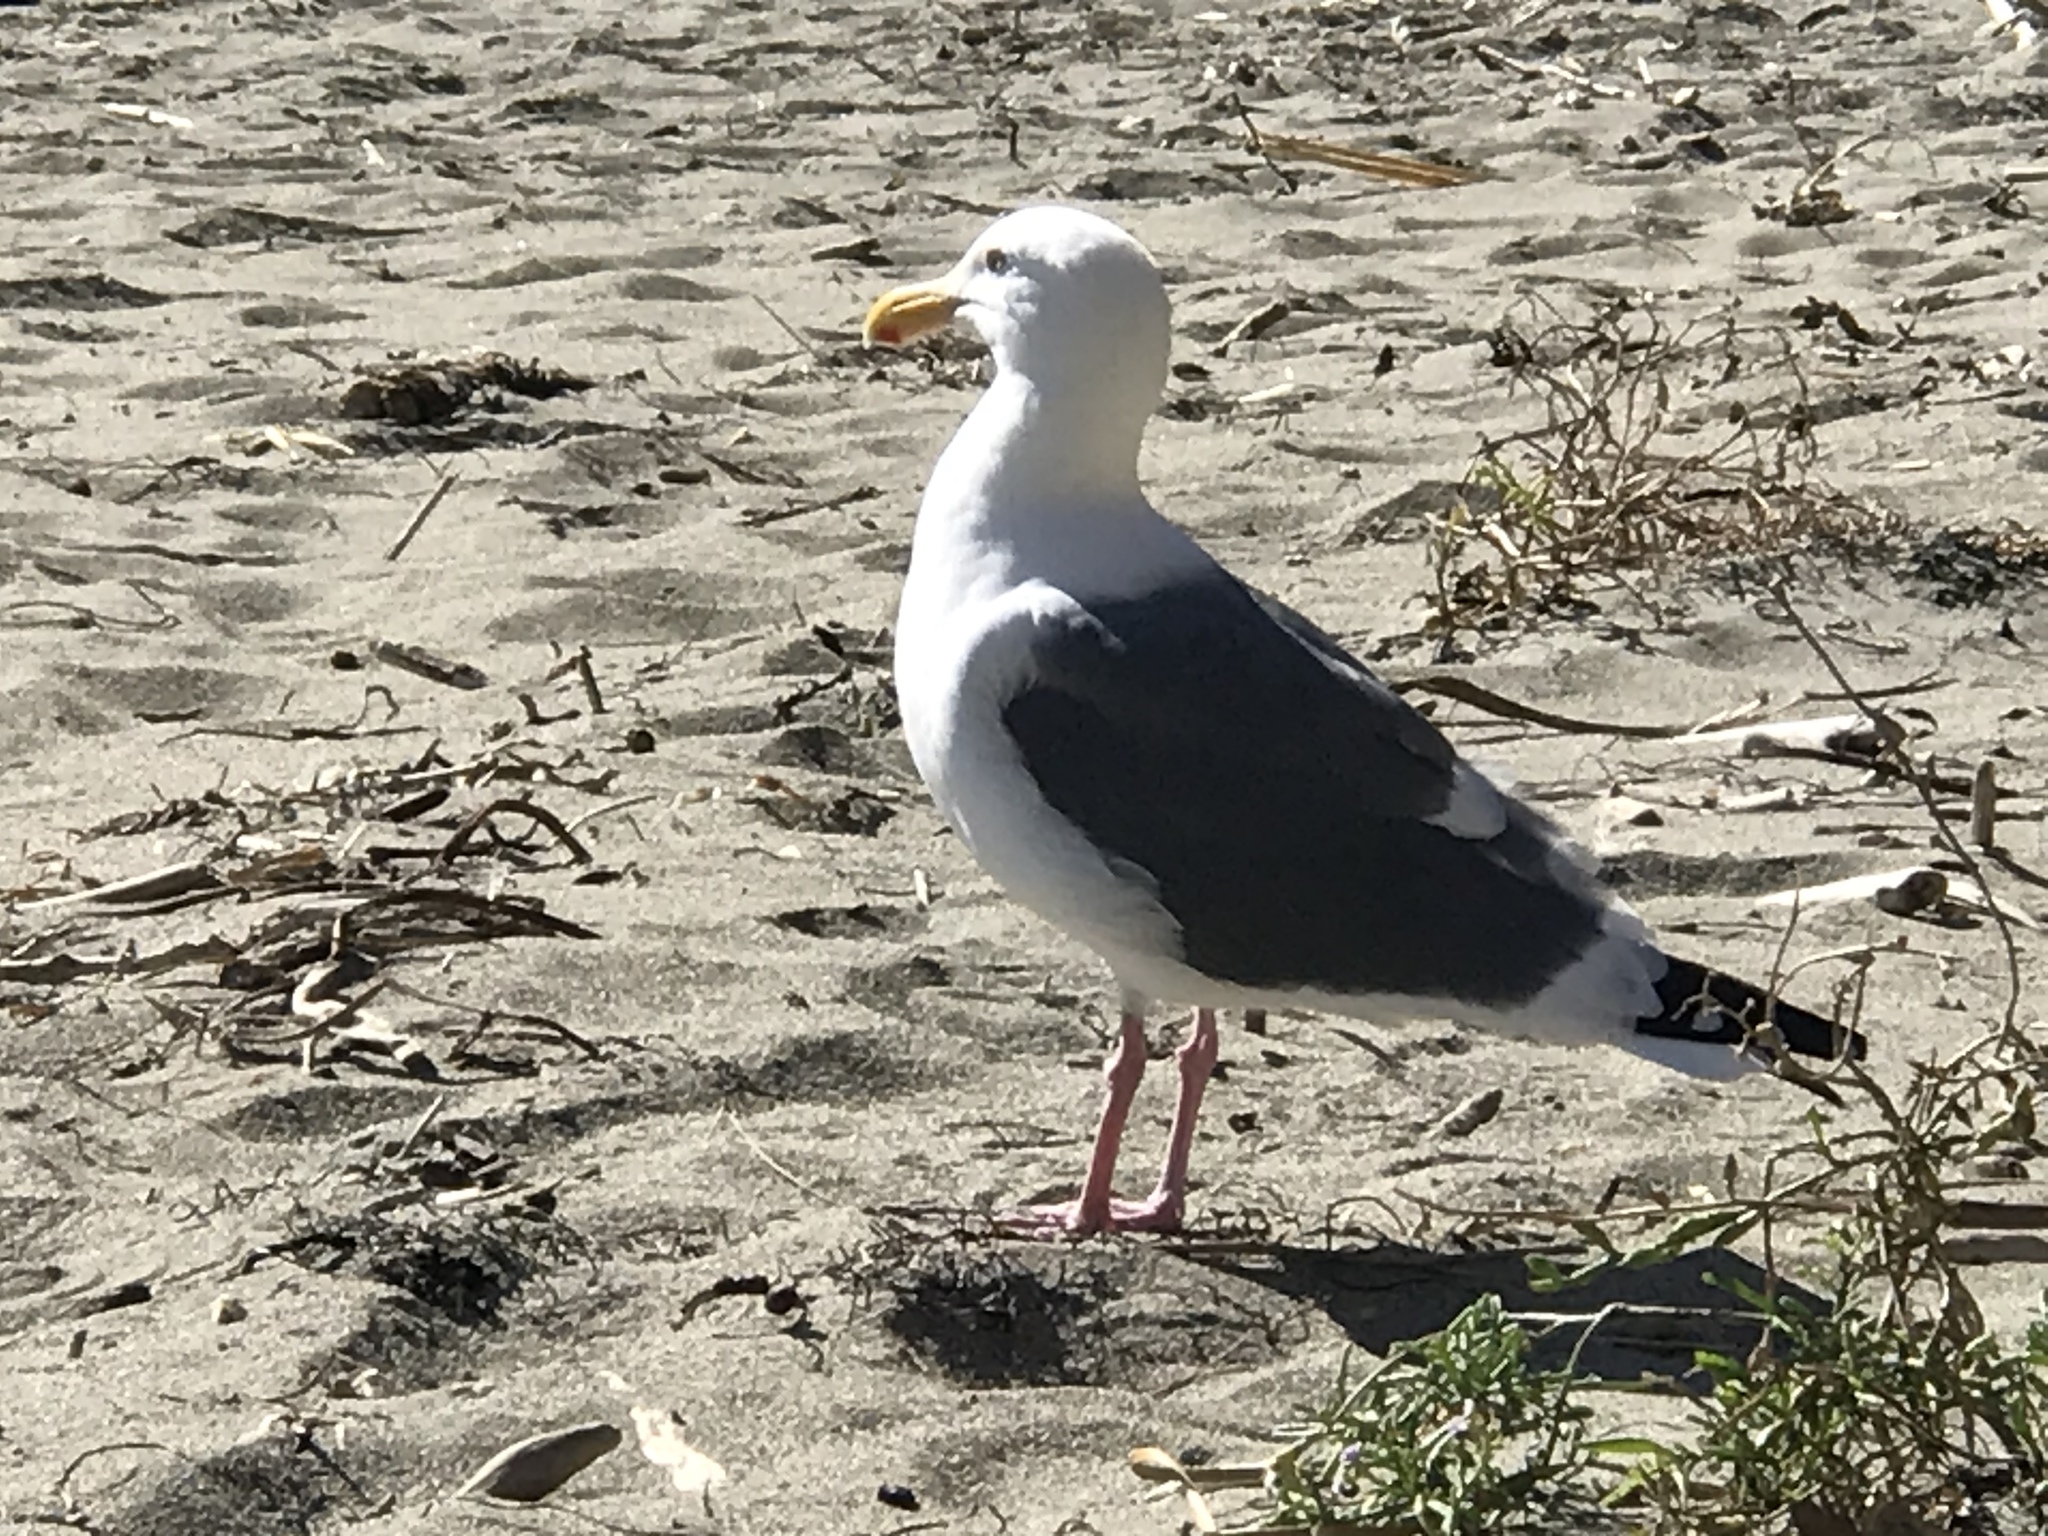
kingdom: Animalia
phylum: Chordata
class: Aves
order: Charadriiformes
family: Laridae
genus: Larus
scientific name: Larus occidentalis
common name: Western gull
